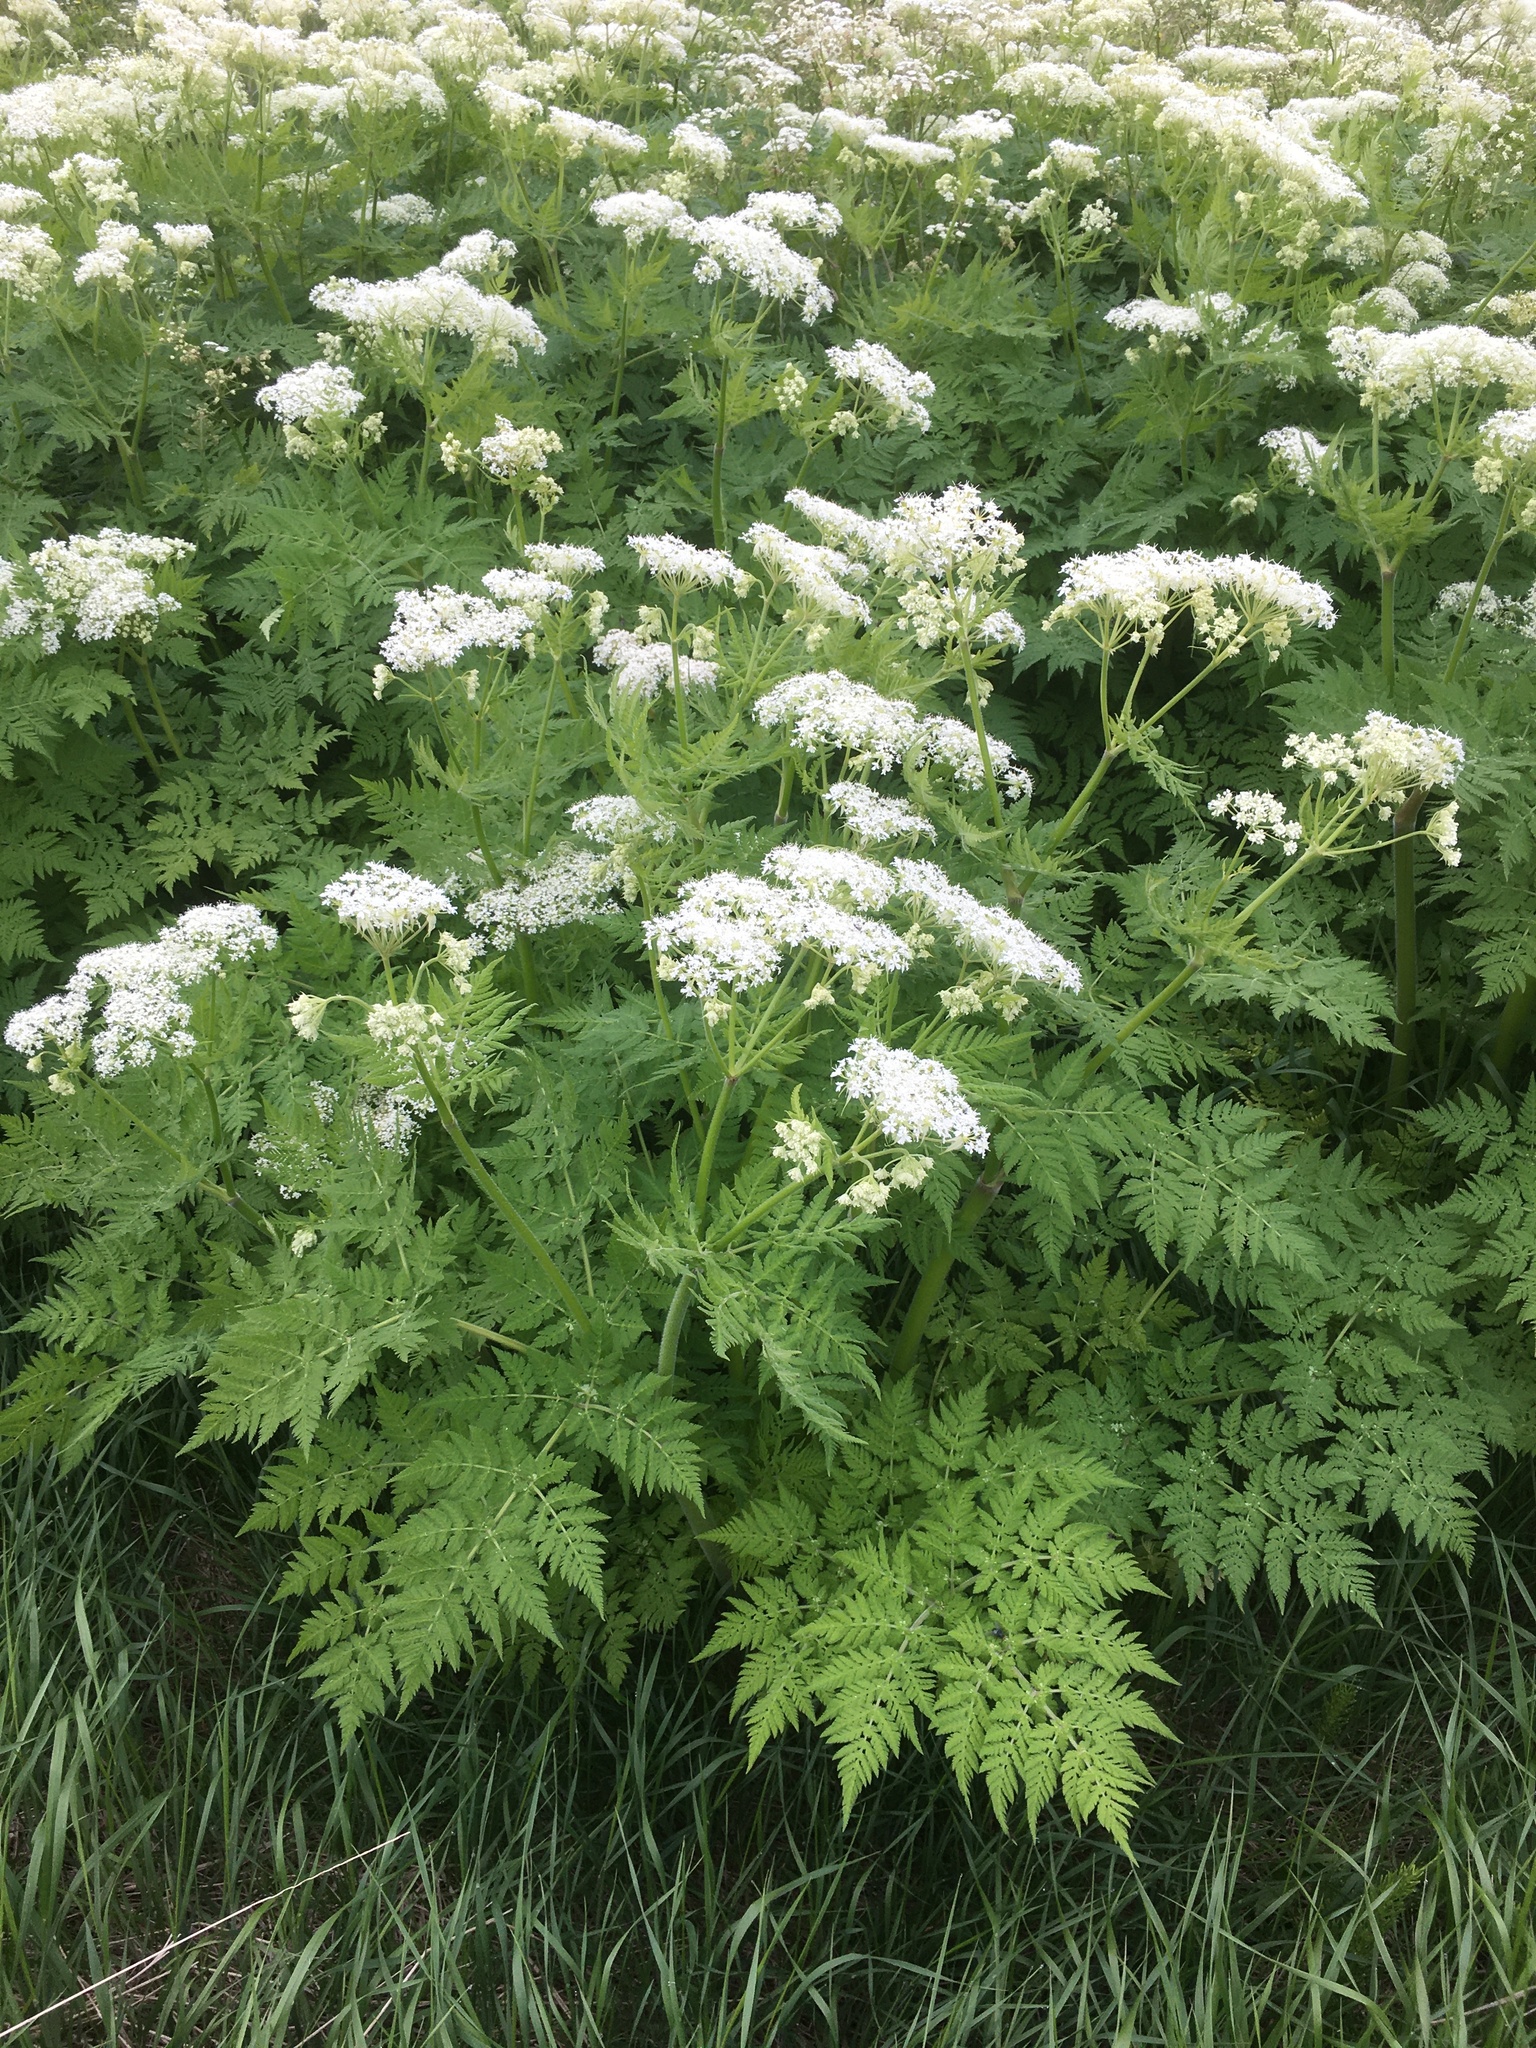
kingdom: Plantae
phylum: Tracheophyta
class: Magnoliopsida
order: Apiales
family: Apiaceae
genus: Myrrhis
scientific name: Myrrhis odorata
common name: Sweet cicely
